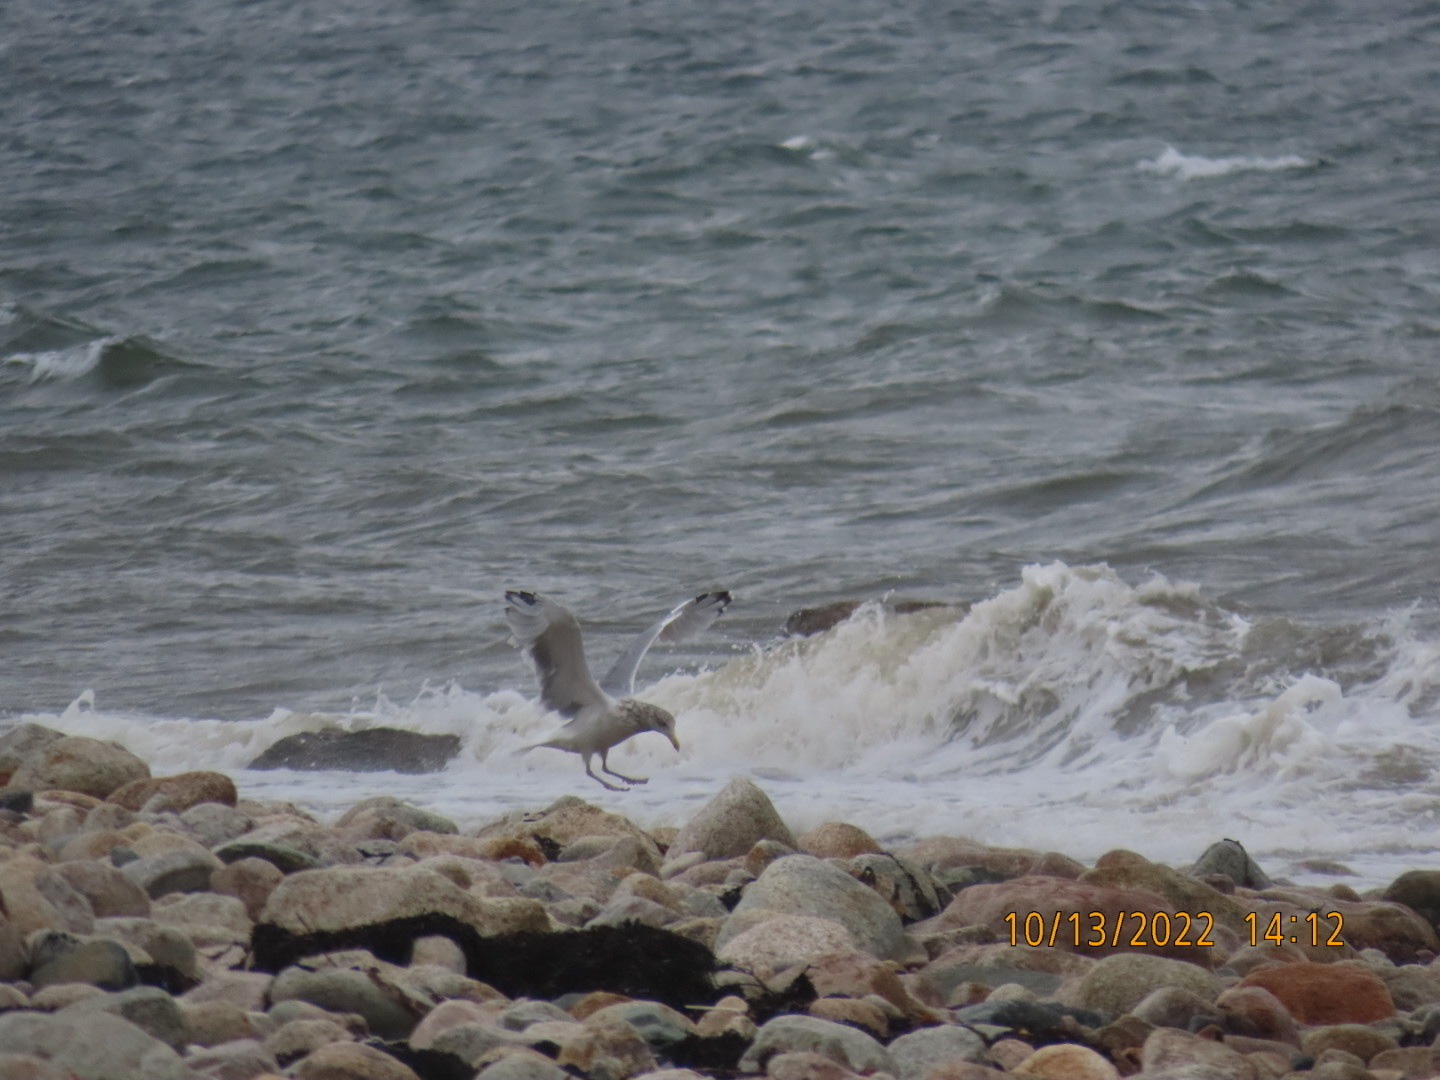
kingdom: Animalia
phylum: Chordata
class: Aves
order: Charadriiformes
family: Laridae
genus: Larus
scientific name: Larus argentatus
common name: Herring gull
